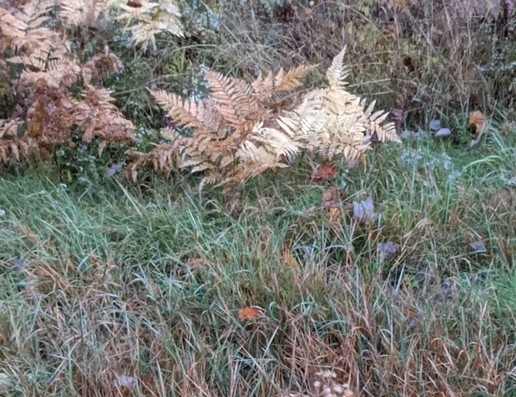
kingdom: Plantae
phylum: Tracheophyta
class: Polypodiopsida
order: Polypodiales
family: Dennstaedtiaceae
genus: Pteridium
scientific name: Pteridium aquilinum
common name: Bracken
